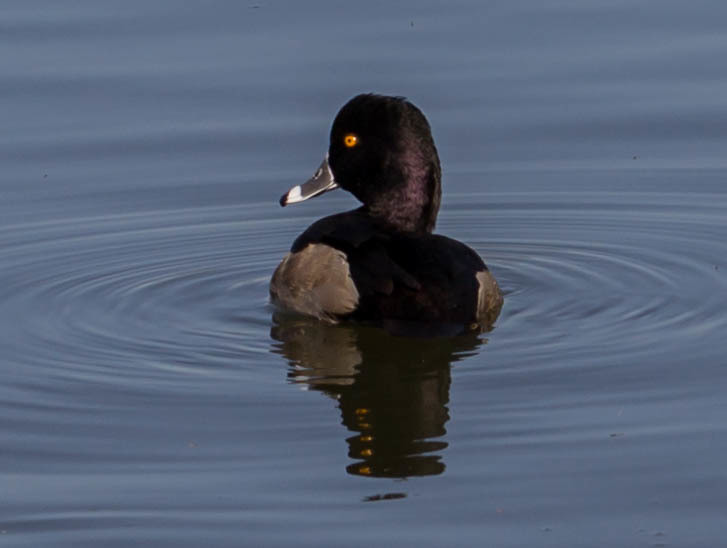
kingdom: Animalia
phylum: Chordata
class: Aves
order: Anseriformes
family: Anatidae
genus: Aythya
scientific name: Aythya collaris
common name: Ring-necked duck
